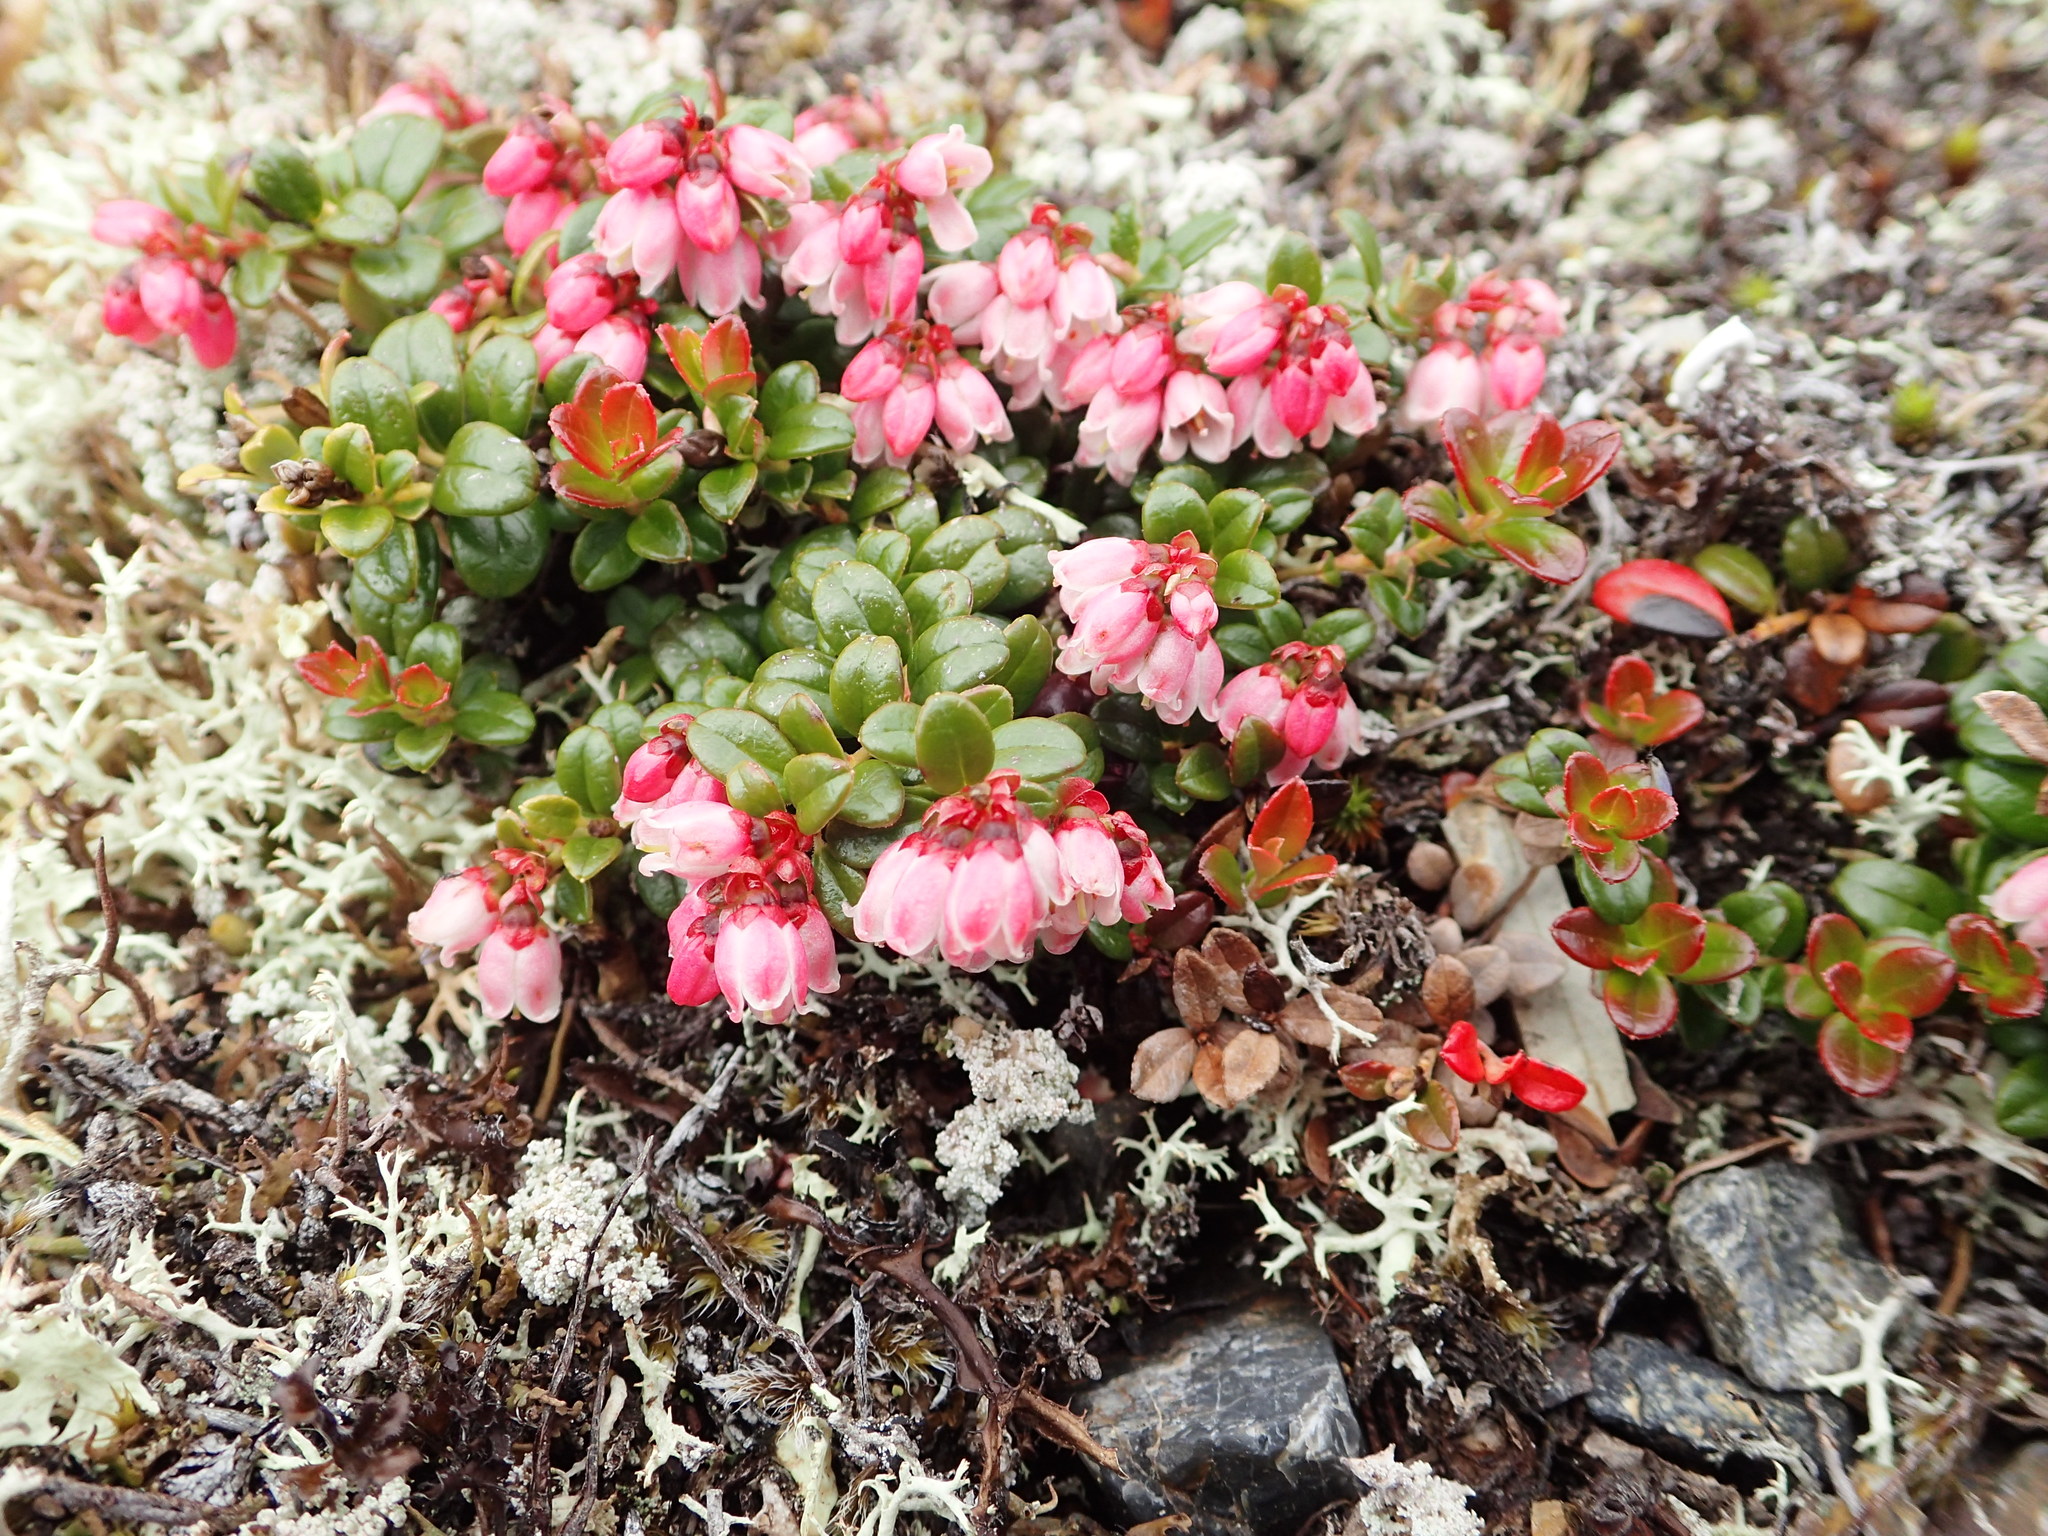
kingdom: Plantae
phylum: Tracheophyta
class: Magnoliopsida
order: Ericales
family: Ericaceae
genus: Vaccinium
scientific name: Vaccinium vitis-idaea
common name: Cowberry
